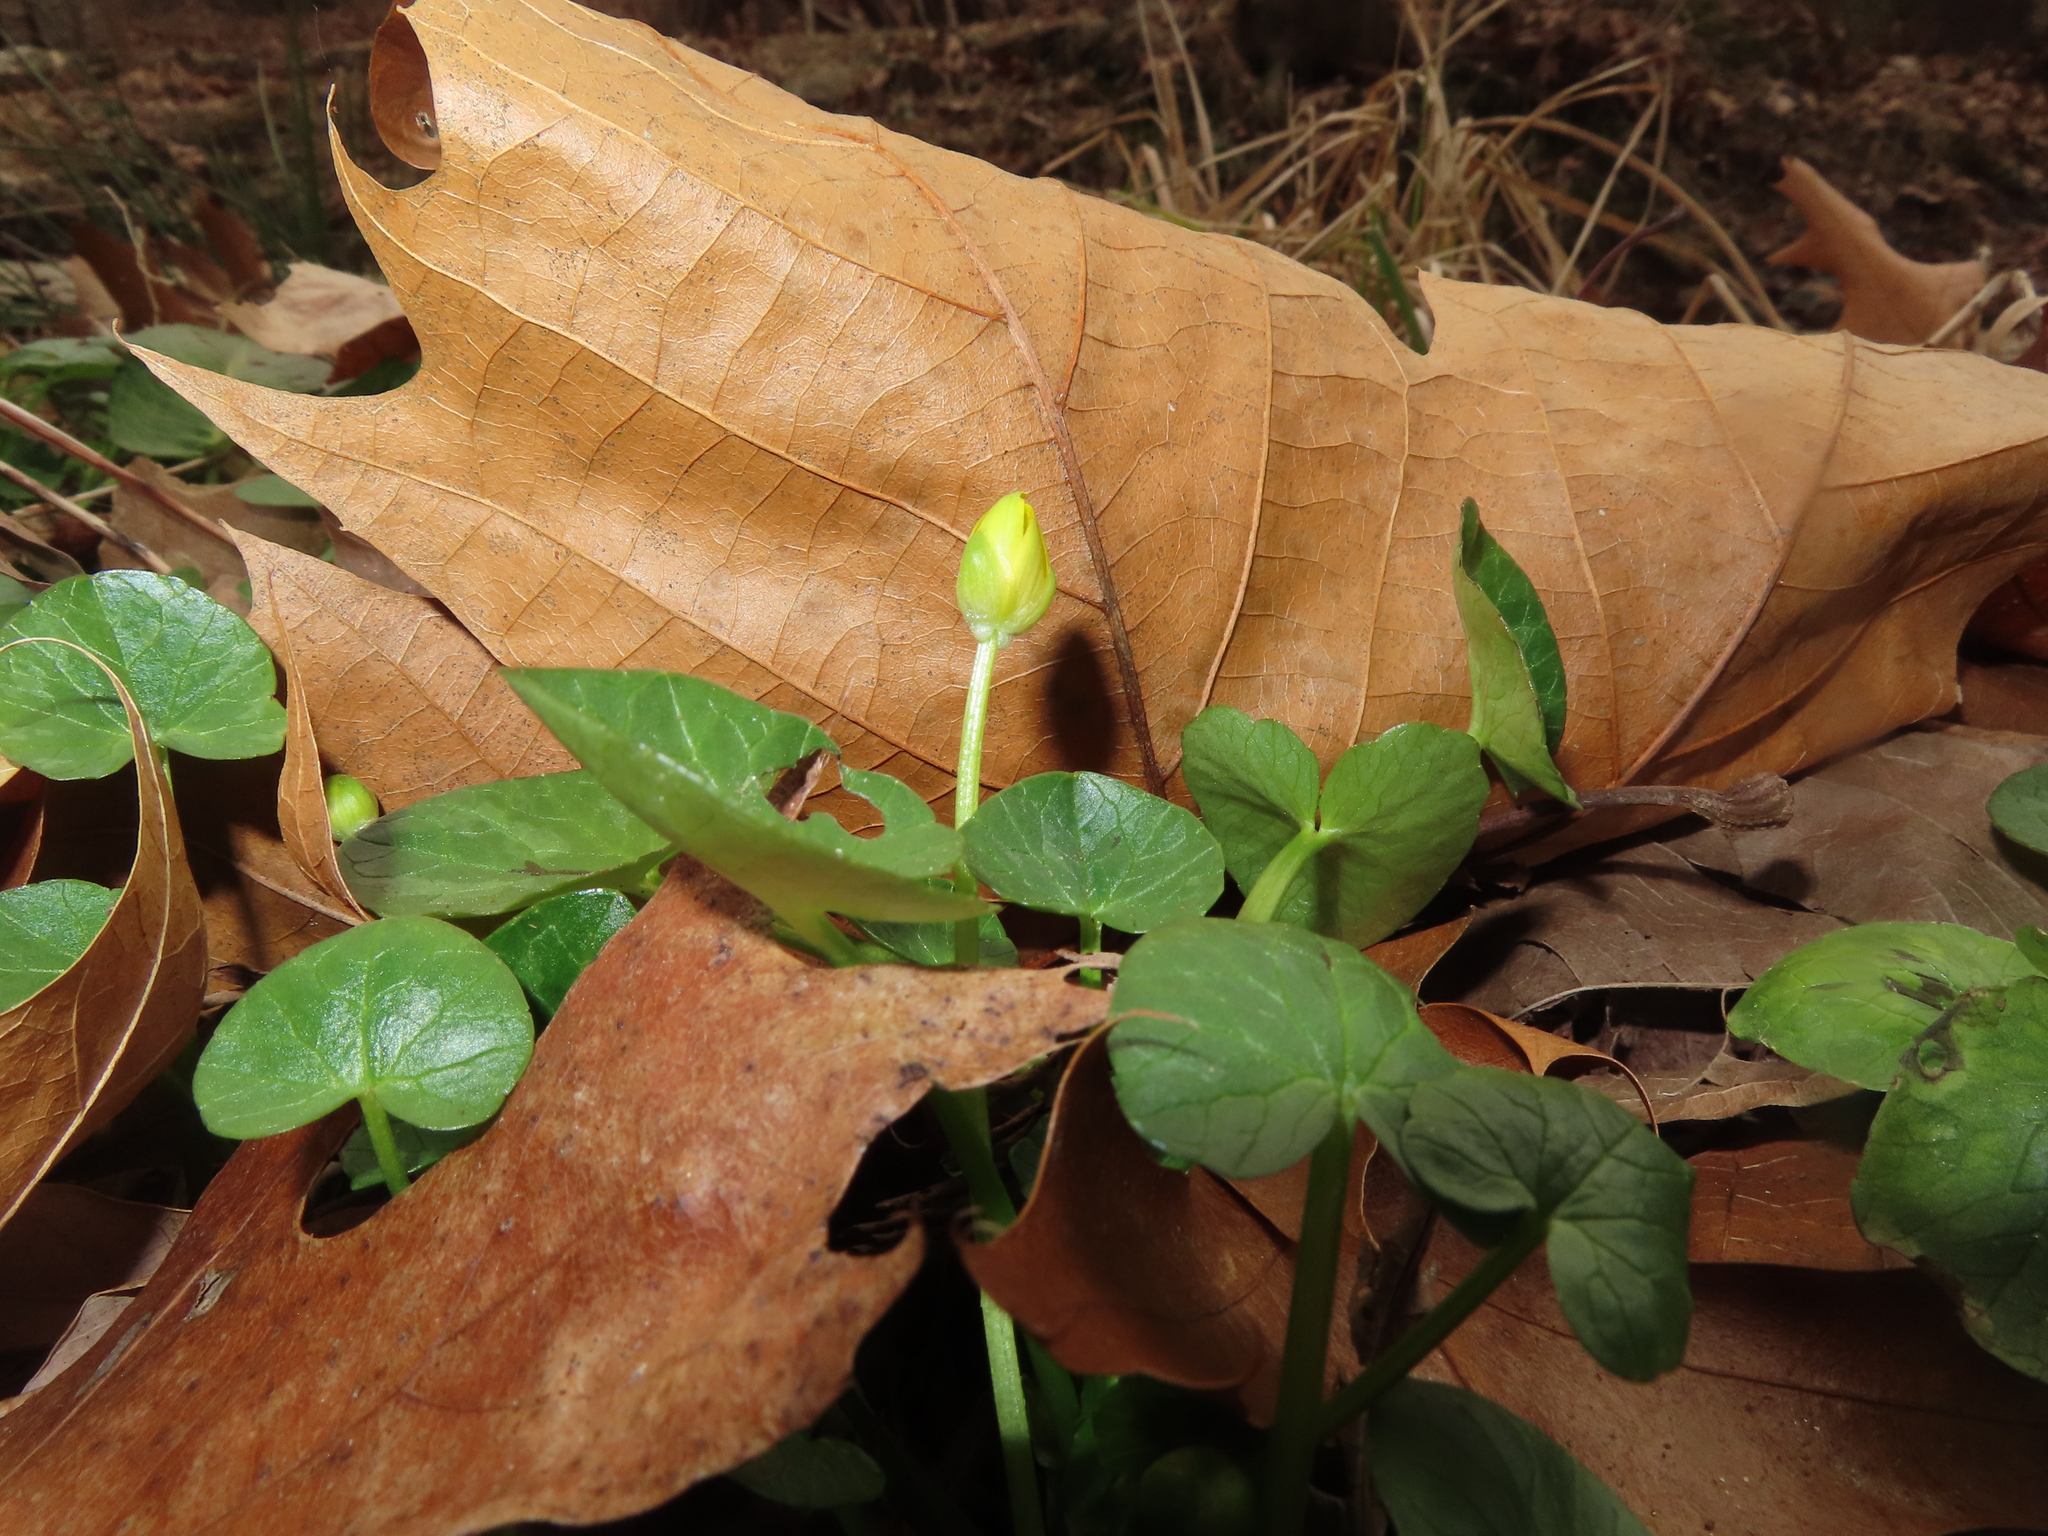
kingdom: Plantae
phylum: Tracheophyta
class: Magnoliopsida
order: Ranunculales
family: Ranunculaceae
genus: Ficaria
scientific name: Ficaria verna
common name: Lesser celandine
